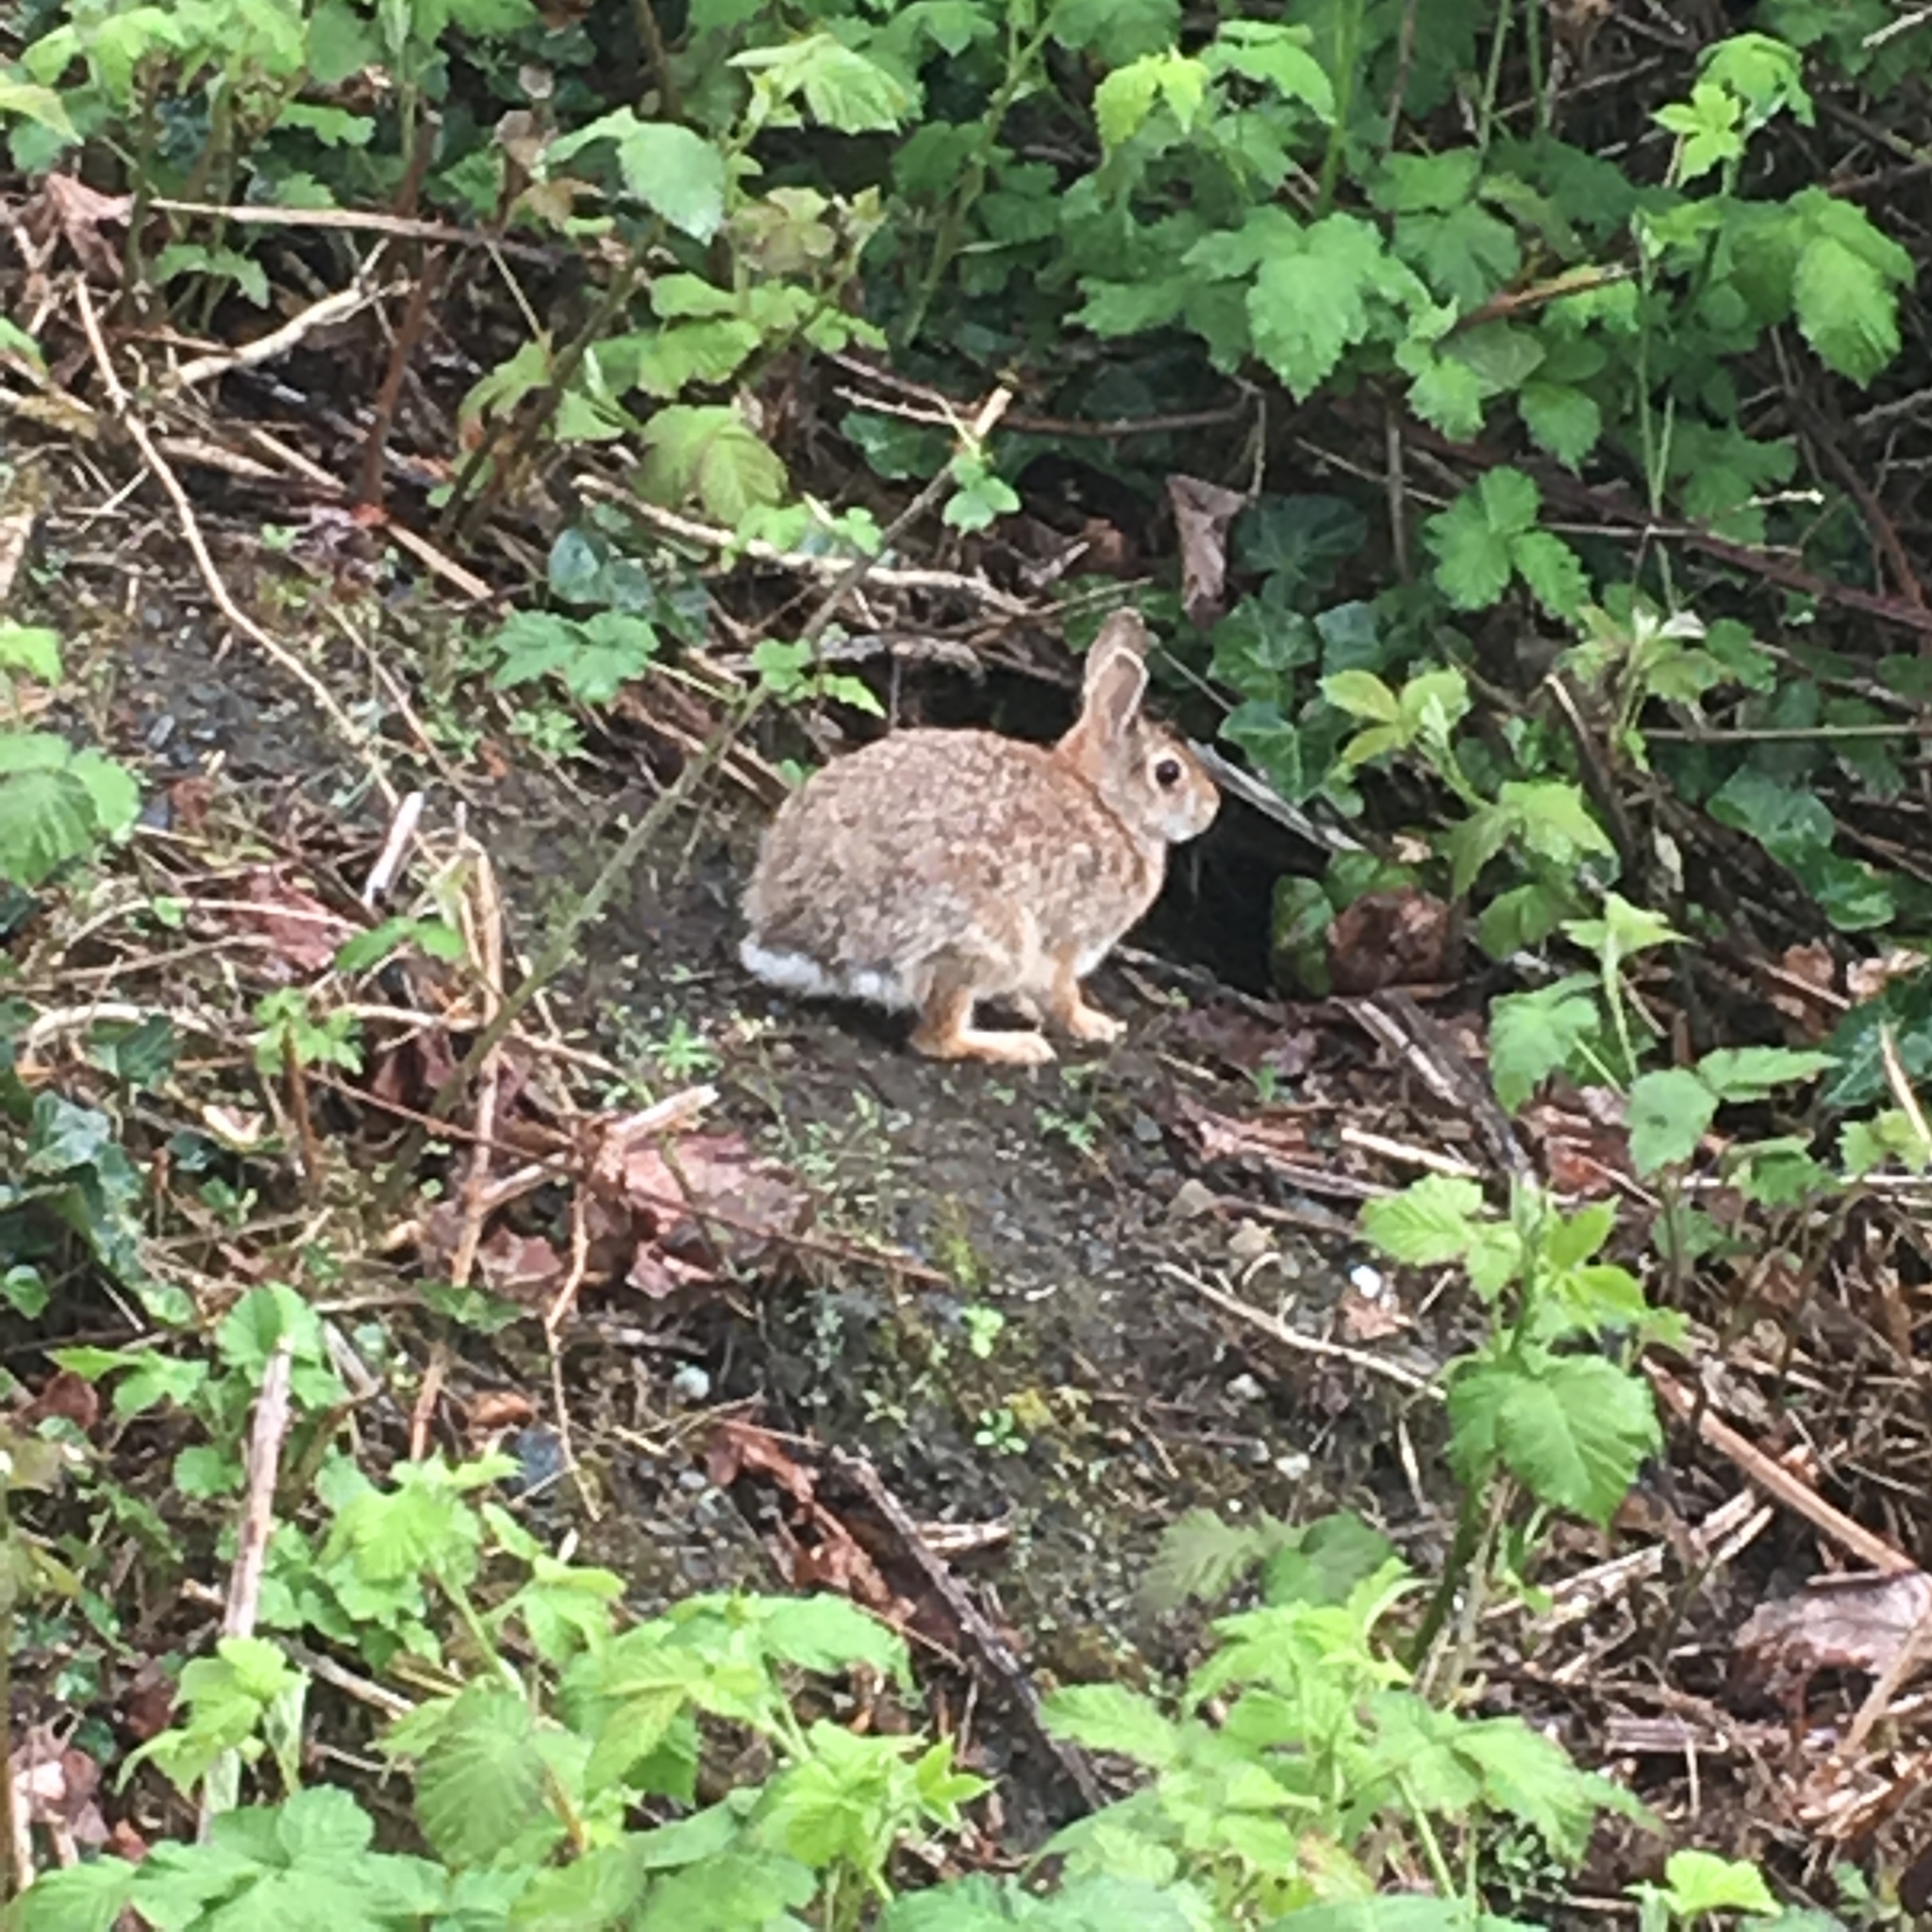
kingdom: Animalia
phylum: Chordata
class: Mammalia
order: Lagomorpha
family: Leporidae
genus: Sylvilagus
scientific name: Sylvilagus floridanus
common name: Eastern cottontail
